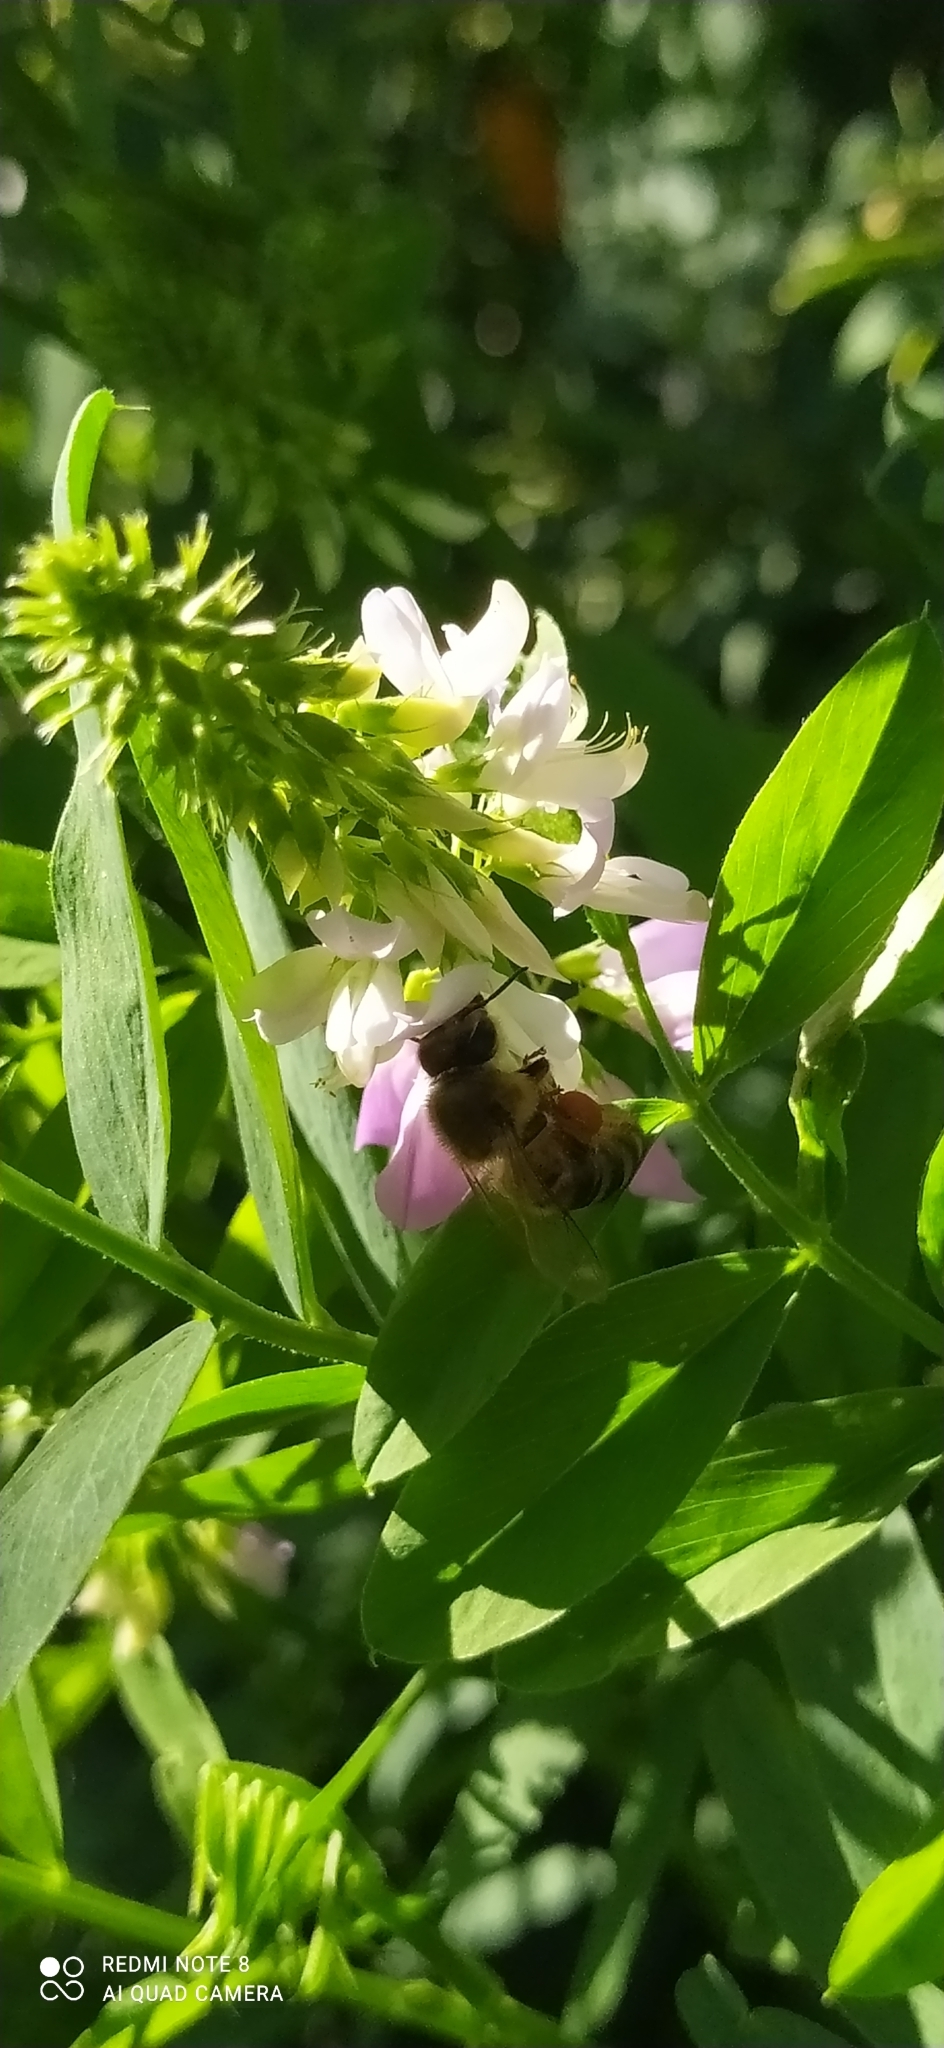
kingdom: Animalia
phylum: Arthropoda
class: Insecta
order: Hymenoptera
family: Apidae
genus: Apis
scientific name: Apis mellifera
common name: Honey bee
